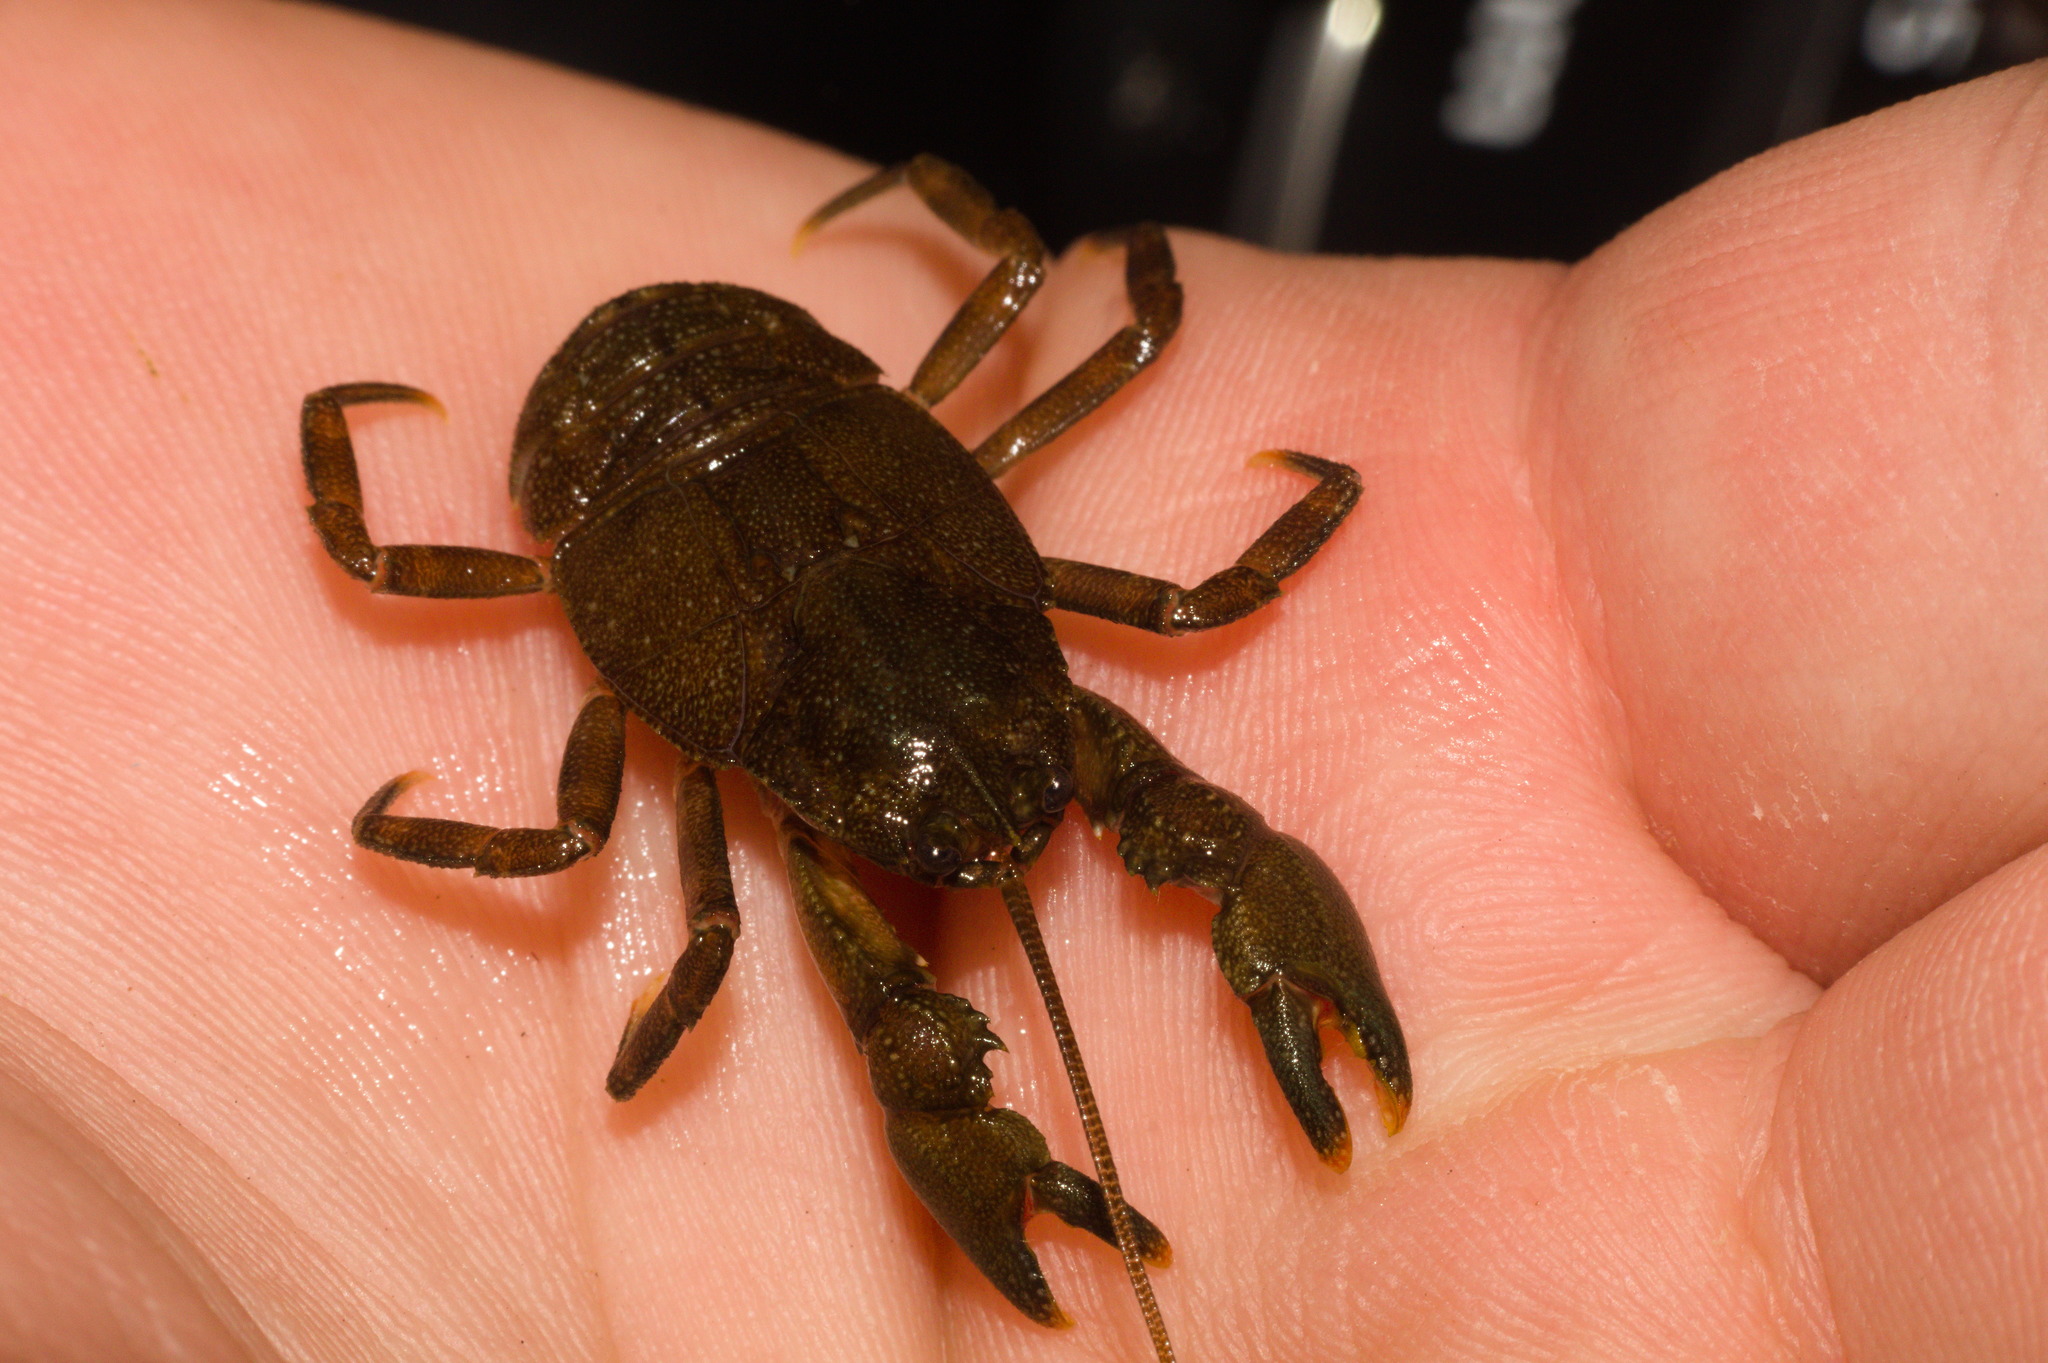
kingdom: Animalia
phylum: Arthropoda
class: Malacostraca
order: Decapoda
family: Aeglidae
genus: Aegla
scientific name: Aegla rossiana
